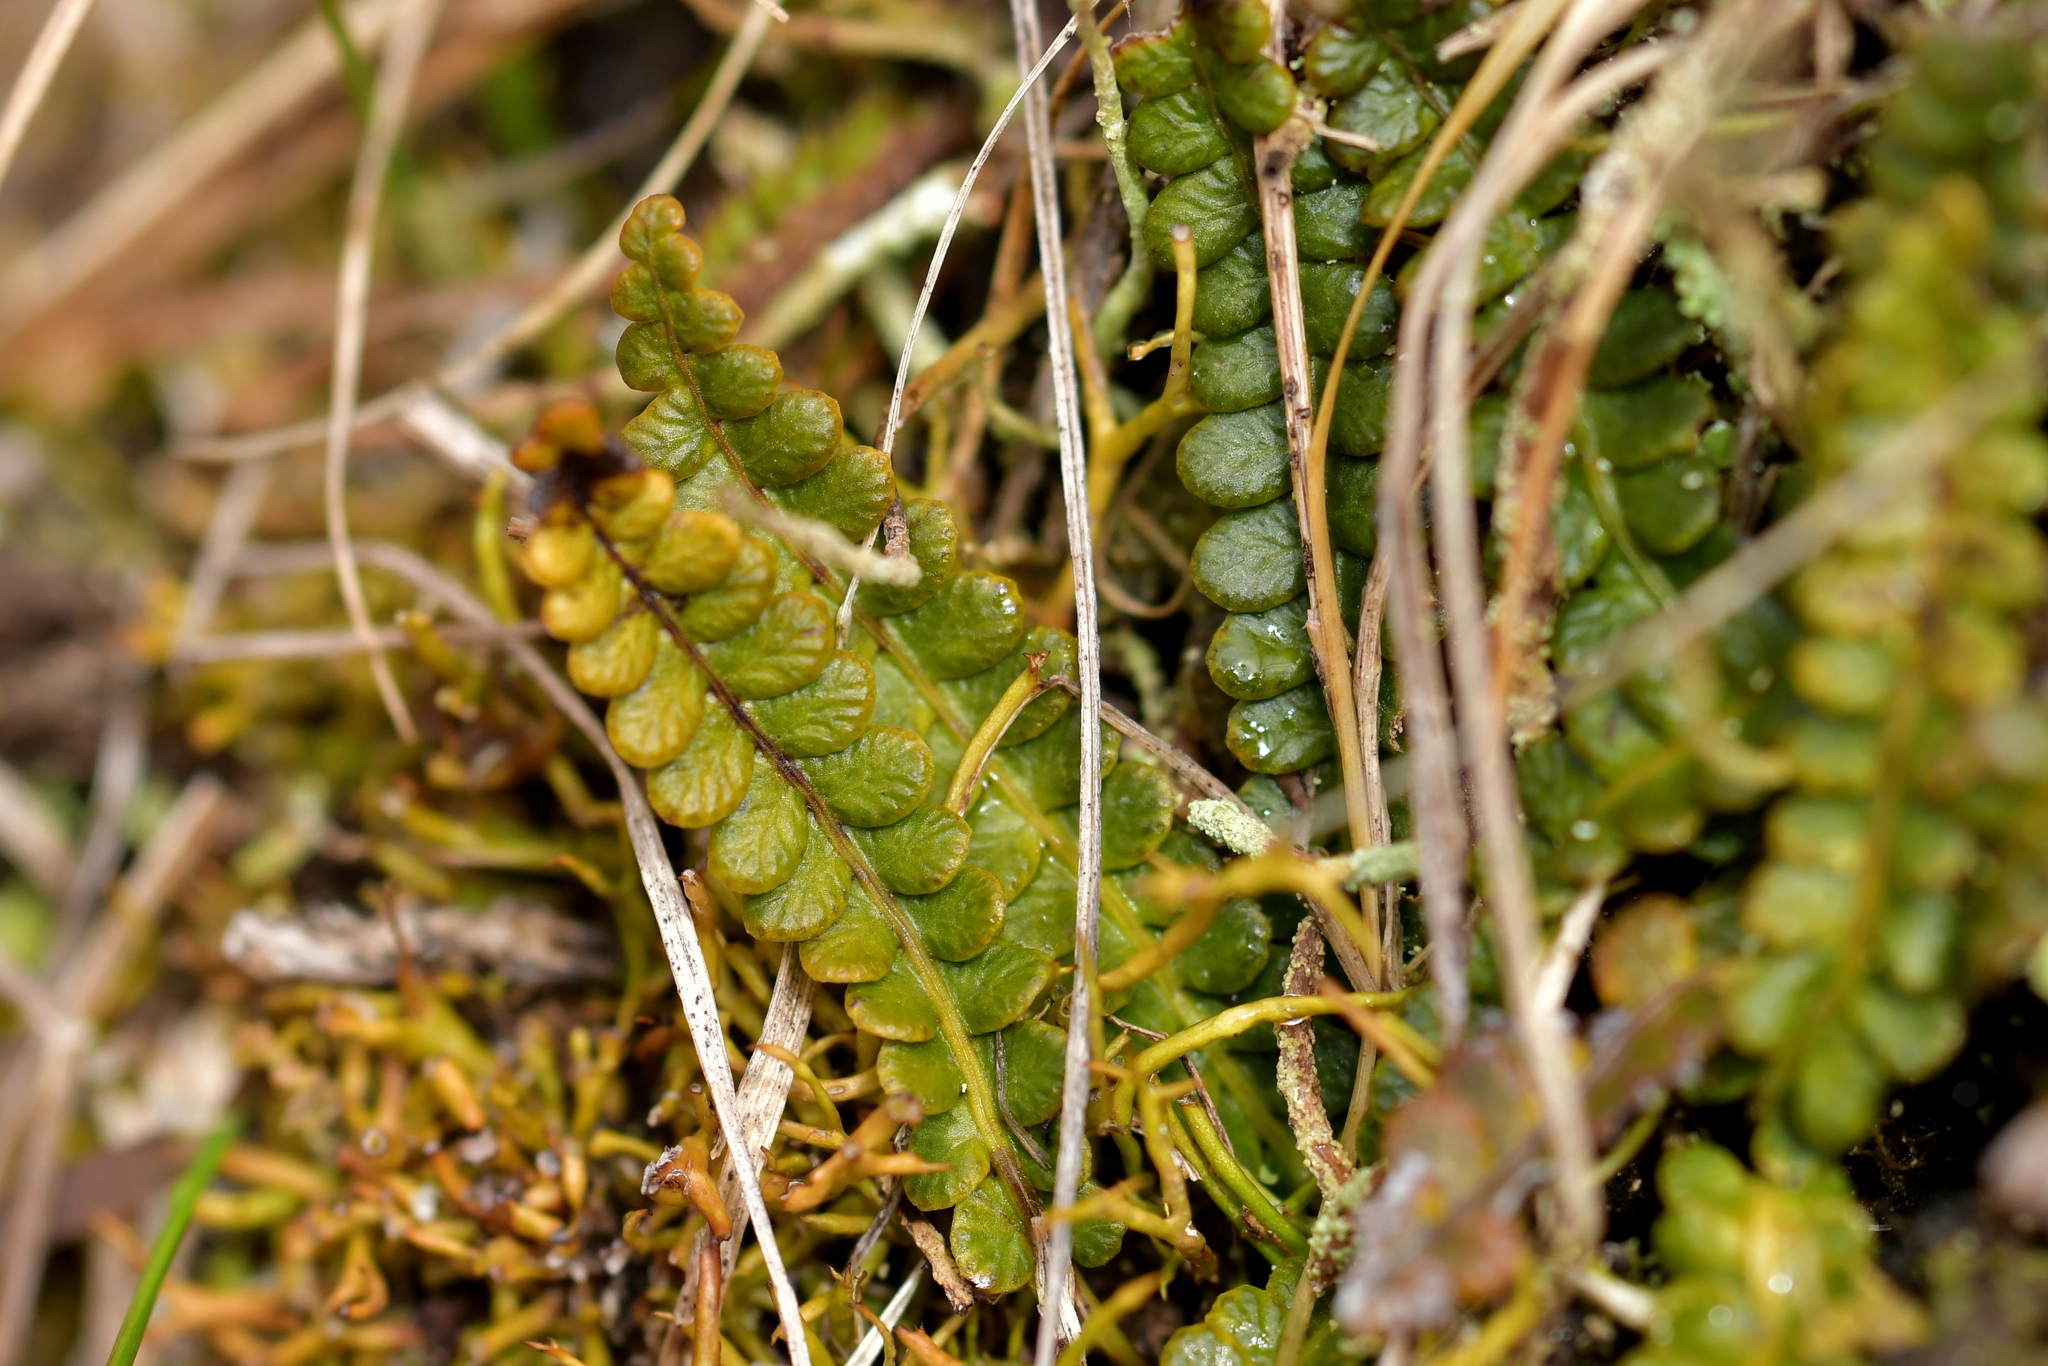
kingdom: Plantae
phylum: Tracheophyta
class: Polypodiopsida
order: Polypodiales
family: Blechnaceae
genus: Austroblechnum
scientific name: Austroblechnum penna-marina
